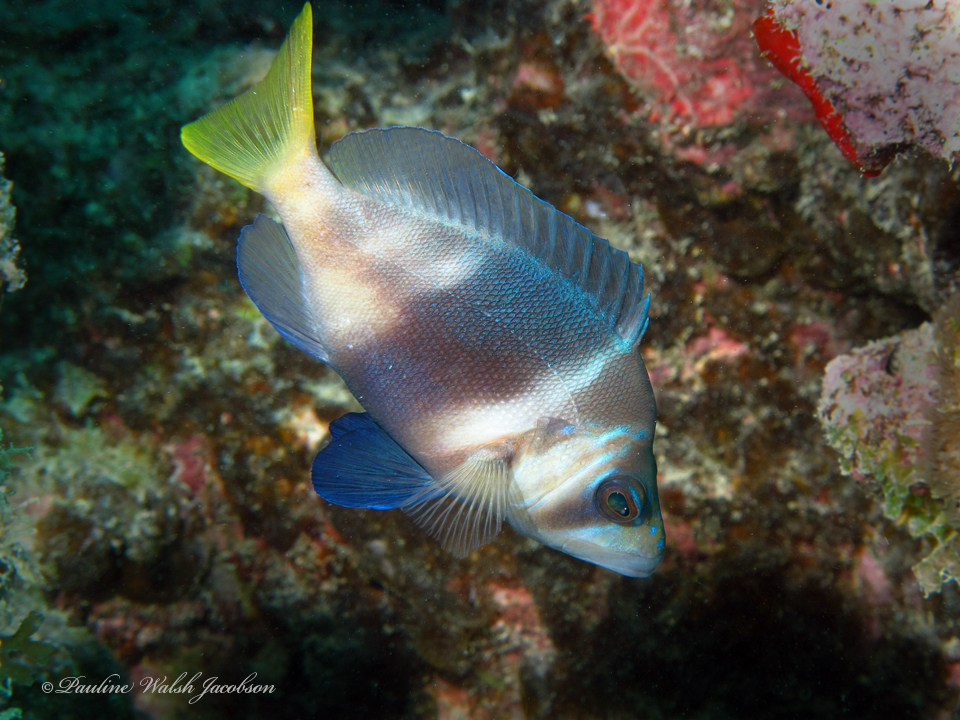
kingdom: Animalia
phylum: Chordata
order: Perciformes
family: Serranidae
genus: Hypoplectrus
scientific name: Hypoplectrus puella
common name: Barred hamlet
